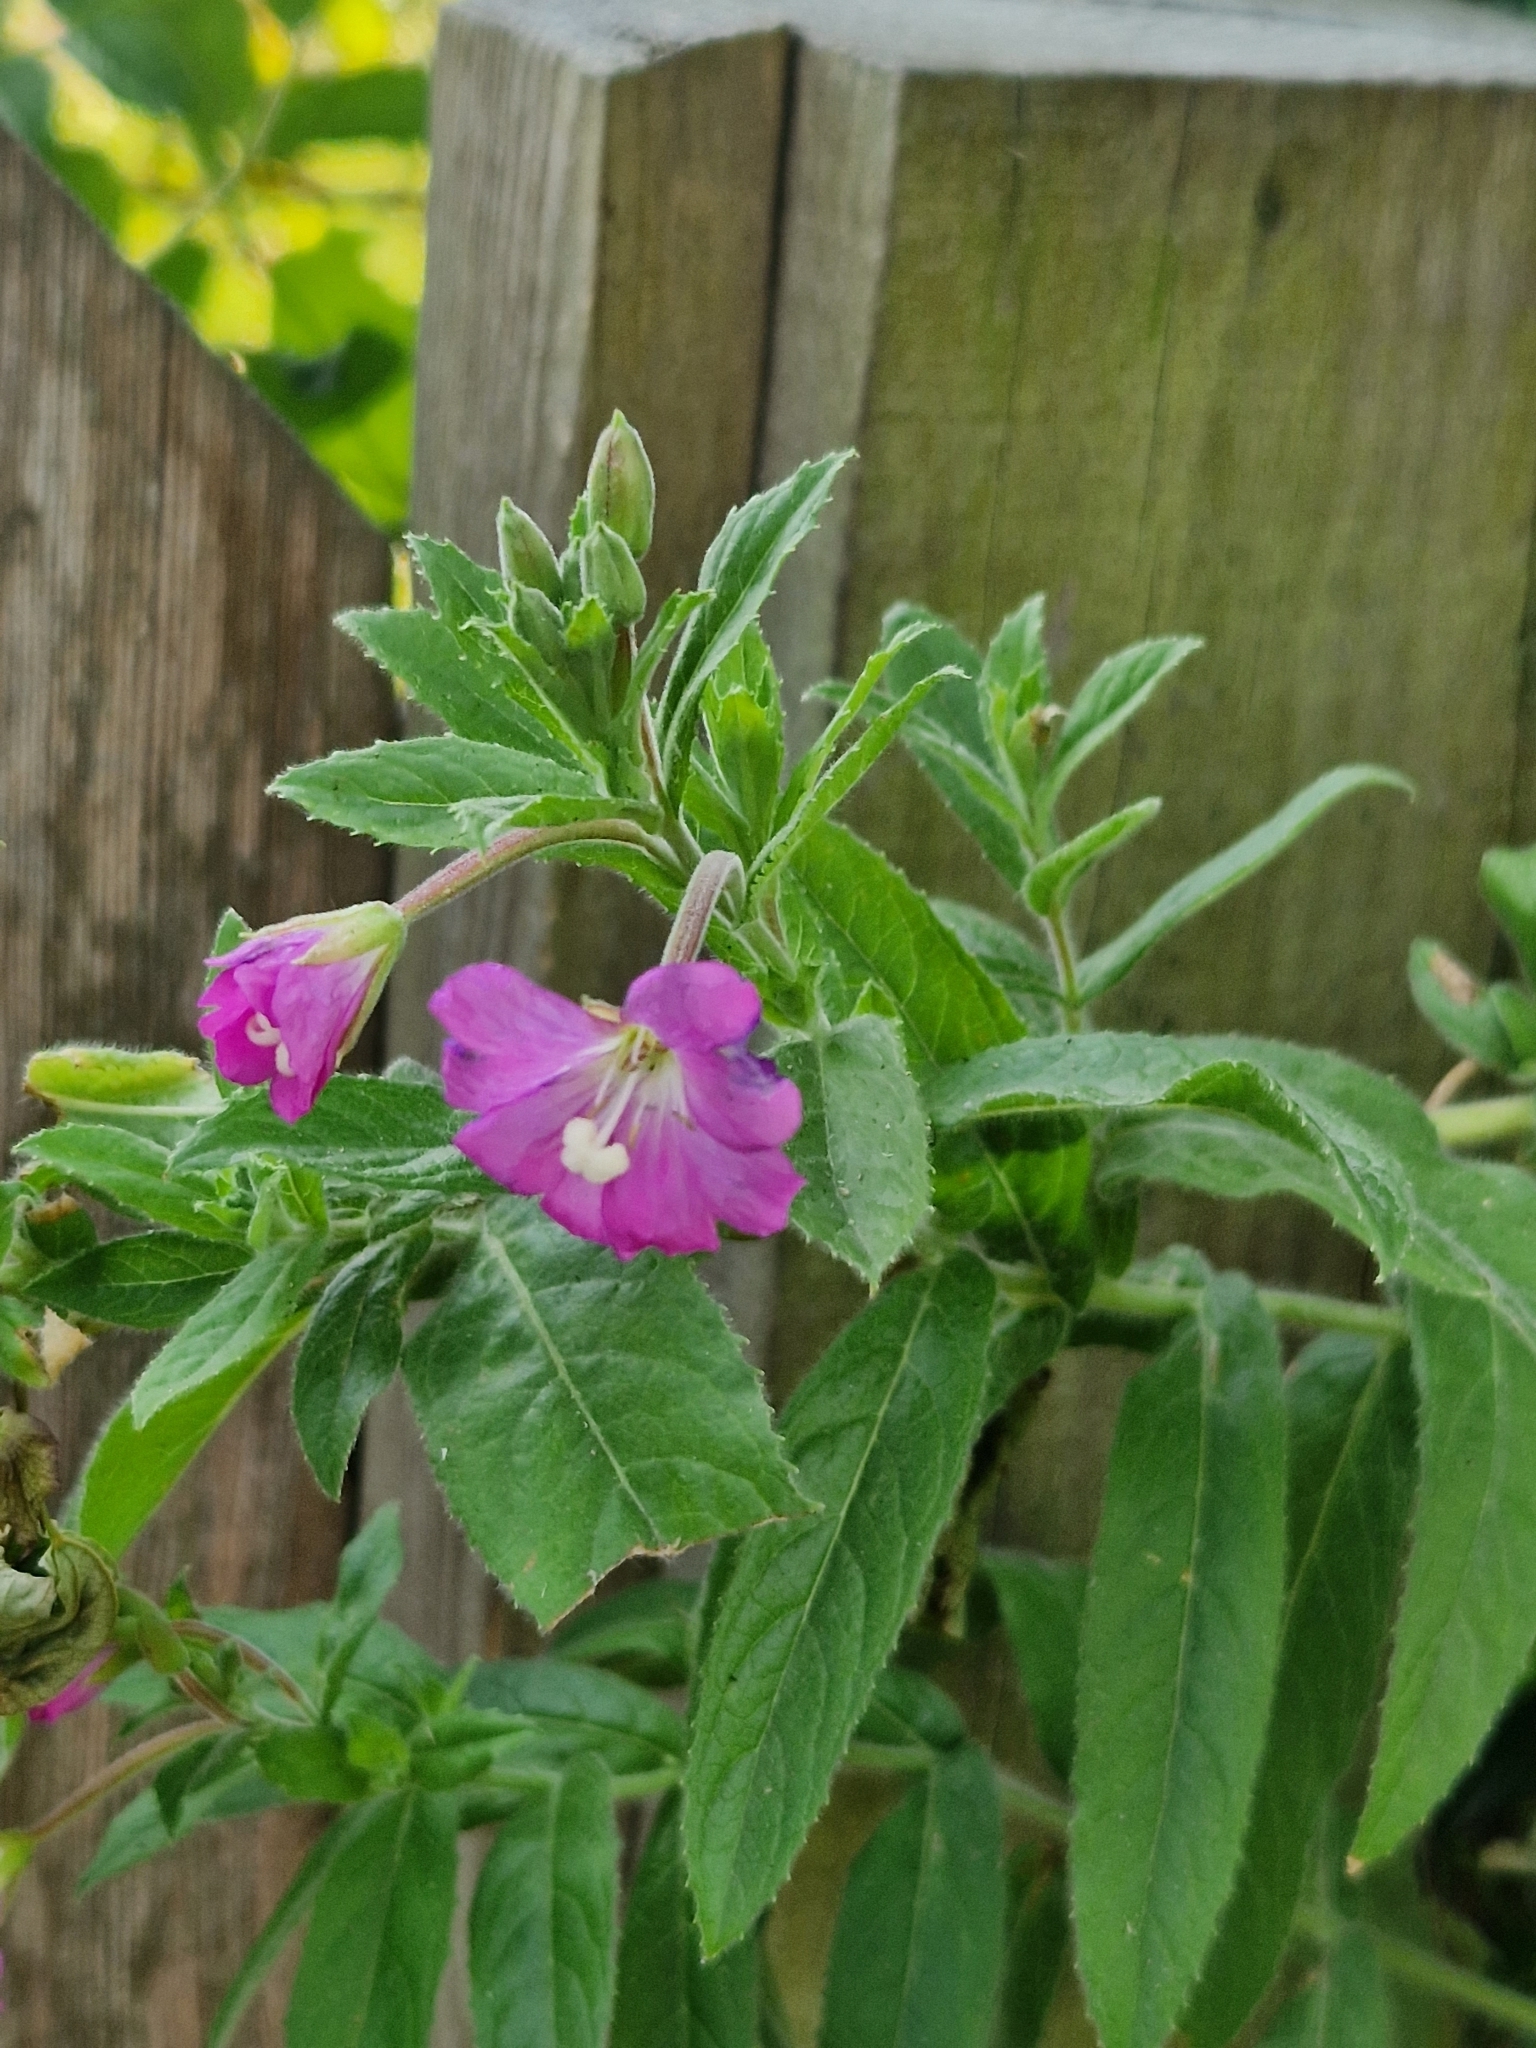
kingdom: Plantae
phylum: Tracheophyta
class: Magnoliopsida
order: Myrtales
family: Onagraceae
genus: Epilobium
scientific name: Epilobium hirsutum
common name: Great willowherb
